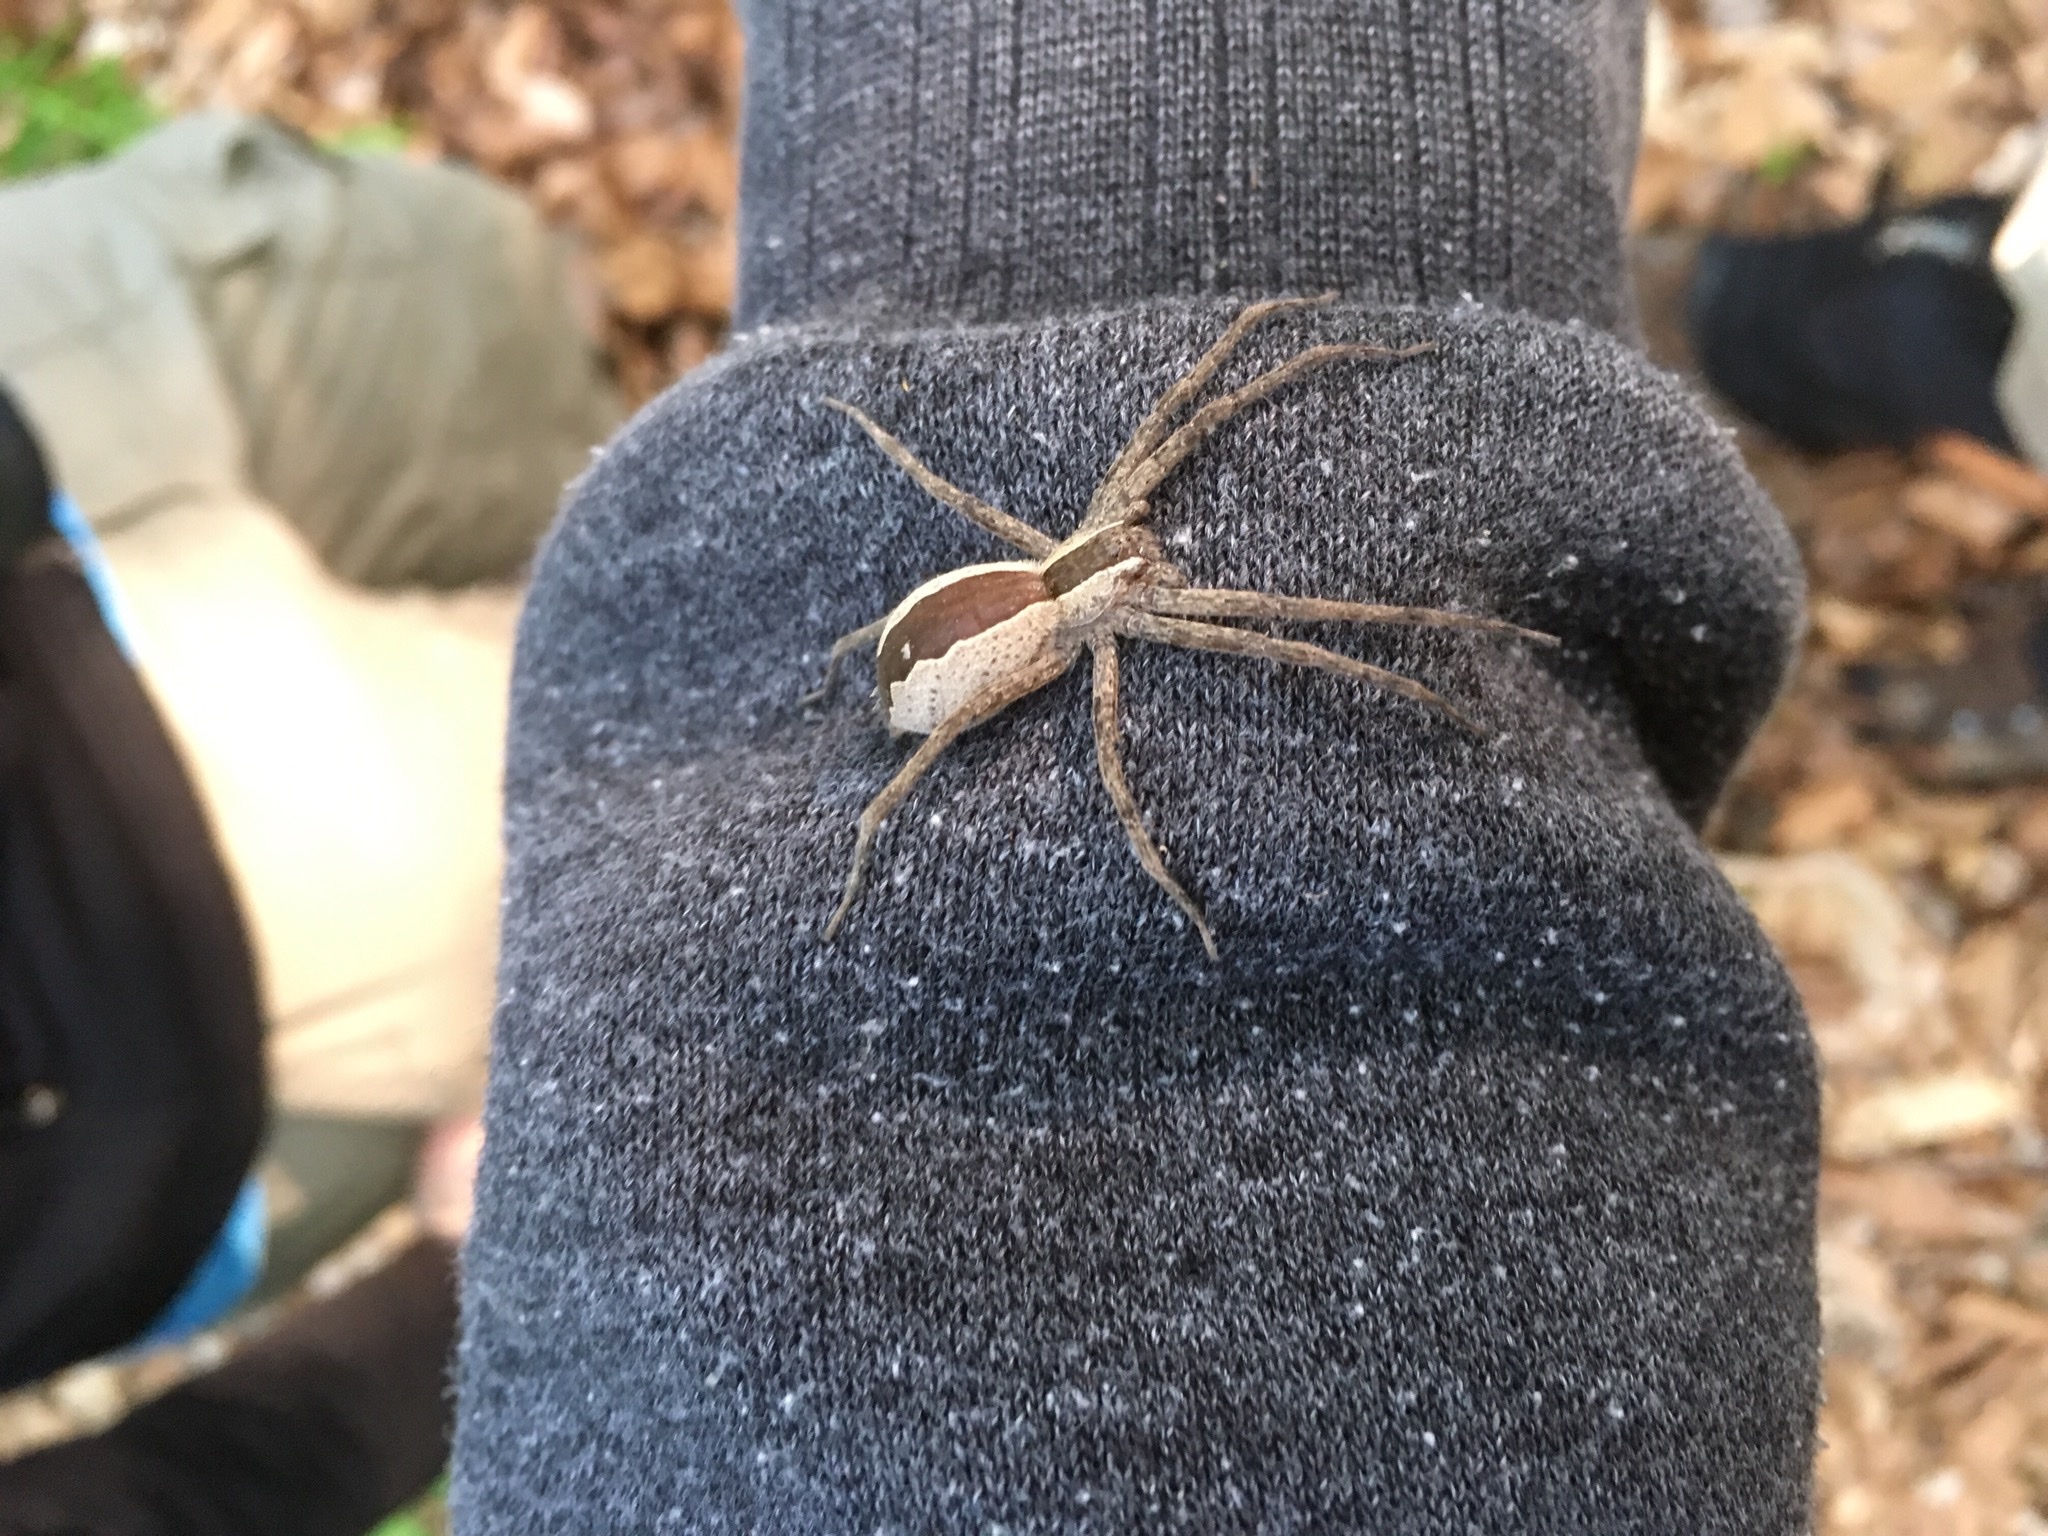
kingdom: Animalia
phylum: Arthropoda
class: Arachnida
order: Araneae
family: Pisauridae
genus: Pisaurina
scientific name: Pisaurina mira
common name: American nursery web spider
